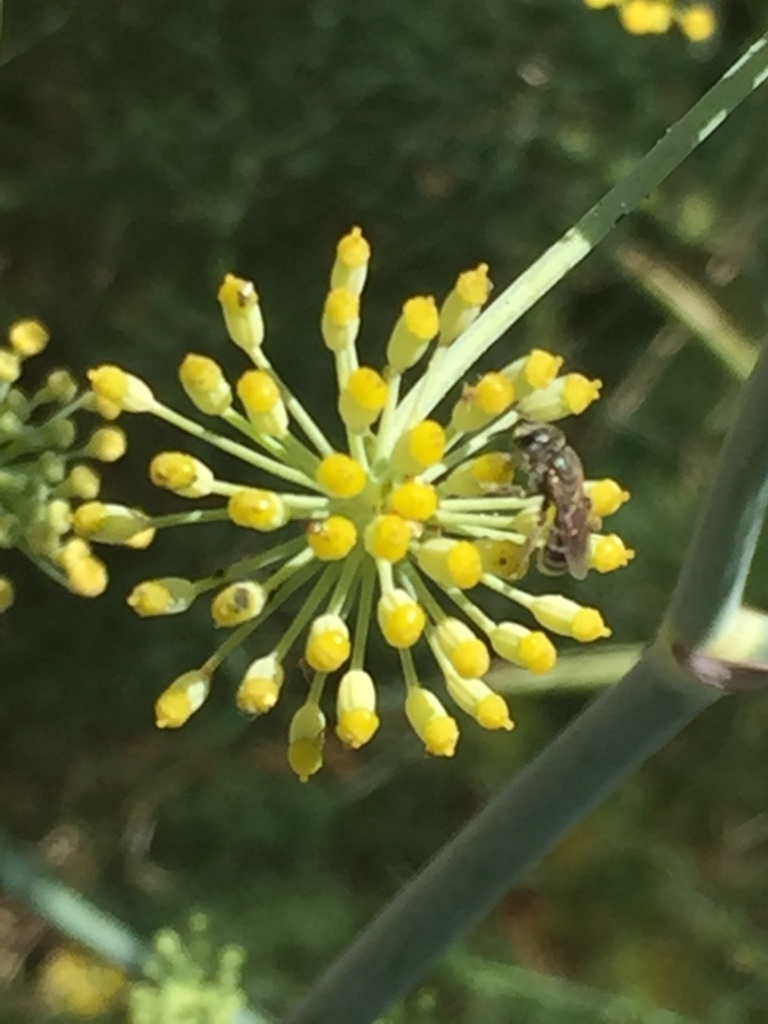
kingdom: Animalia
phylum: Arthropoda
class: Insecta
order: Hymenoptera
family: Halictidae
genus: Halictus
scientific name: Halictus tripartitus
